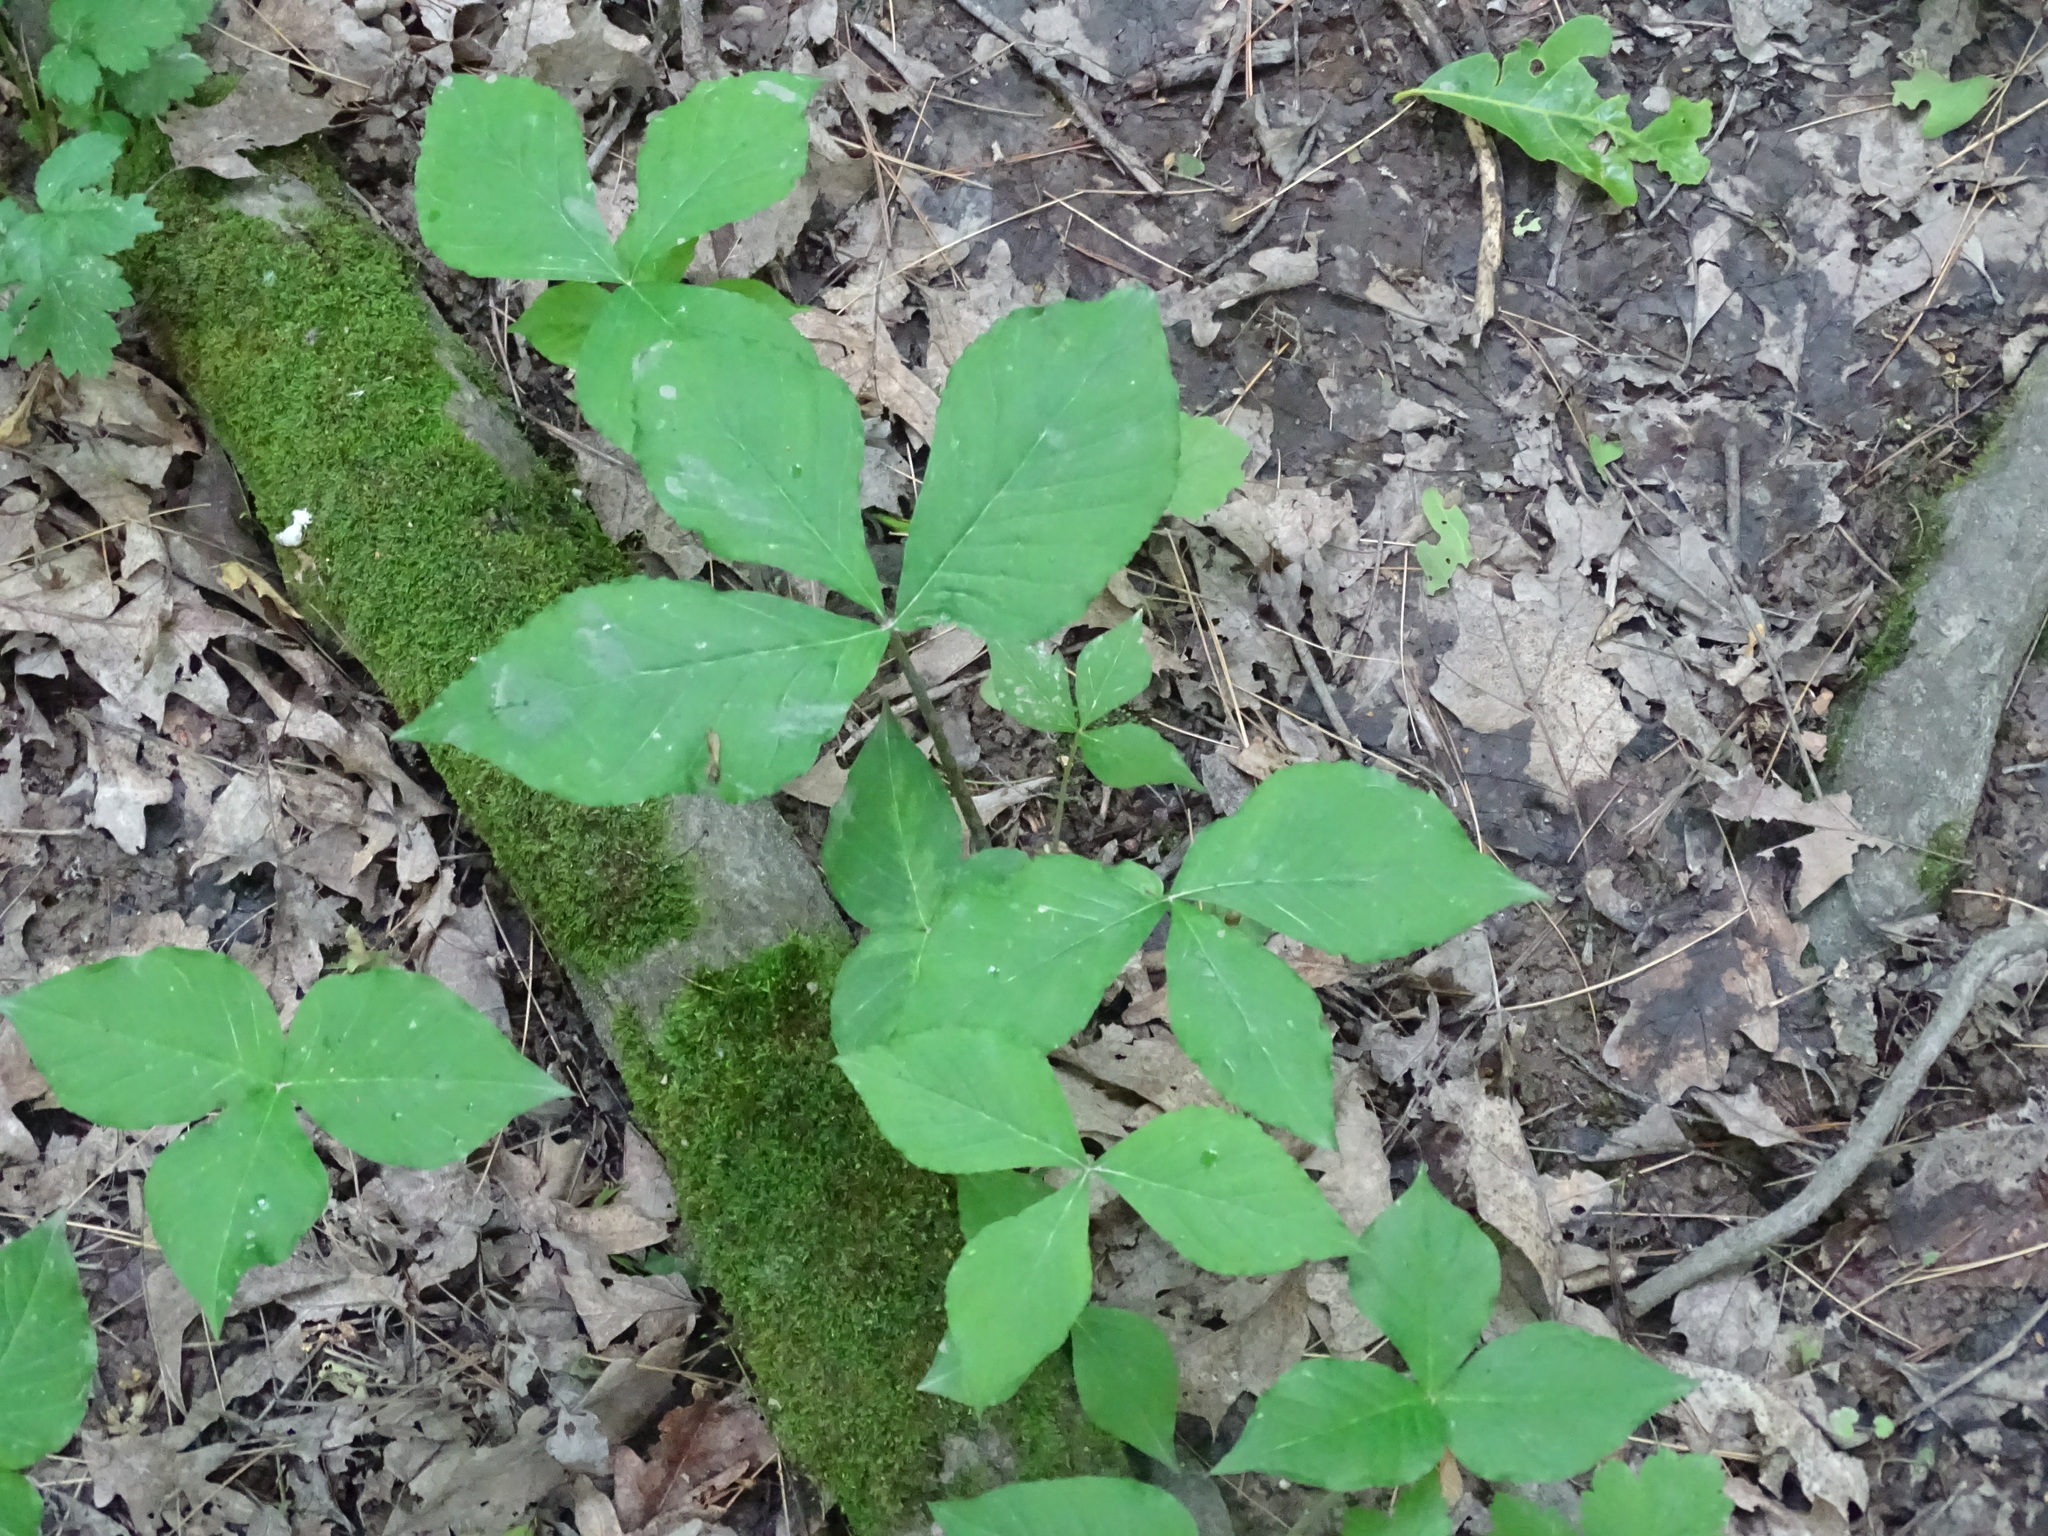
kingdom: Plantae
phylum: Tracheophyta
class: Liliopsida
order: Alismatales
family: Araceae
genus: Arisaema
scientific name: Arisaema triphyllum
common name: Jack-in-the-pulpit
